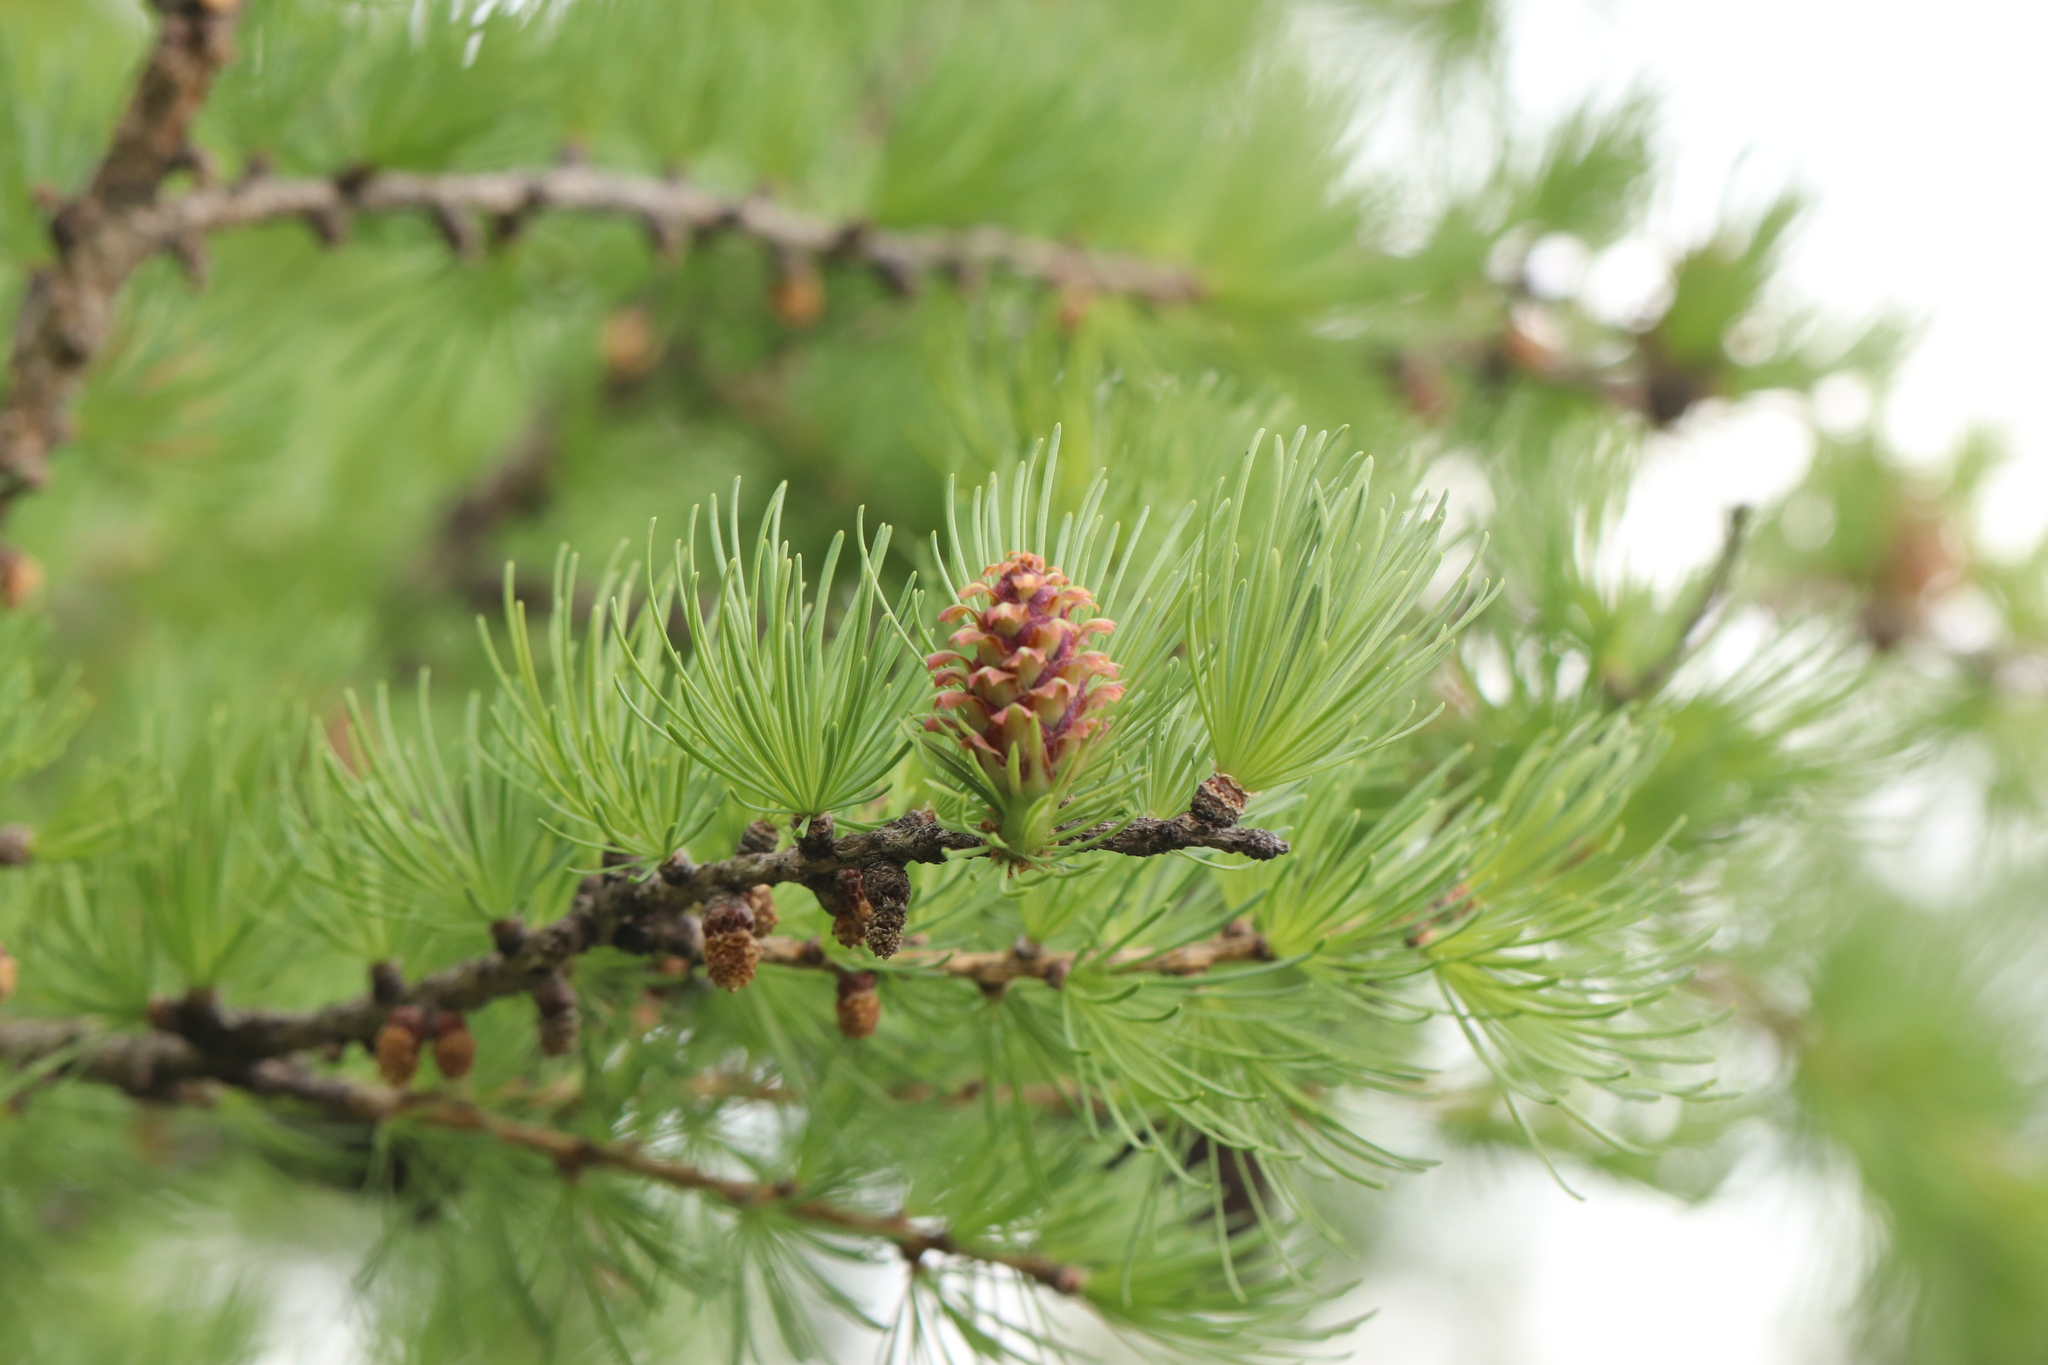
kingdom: Plantae
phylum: Tracheophyta
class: Pinopsida
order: Pinales
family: Pinaceae
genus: Larix
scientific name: Larix sibirica
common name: Siberian larch
